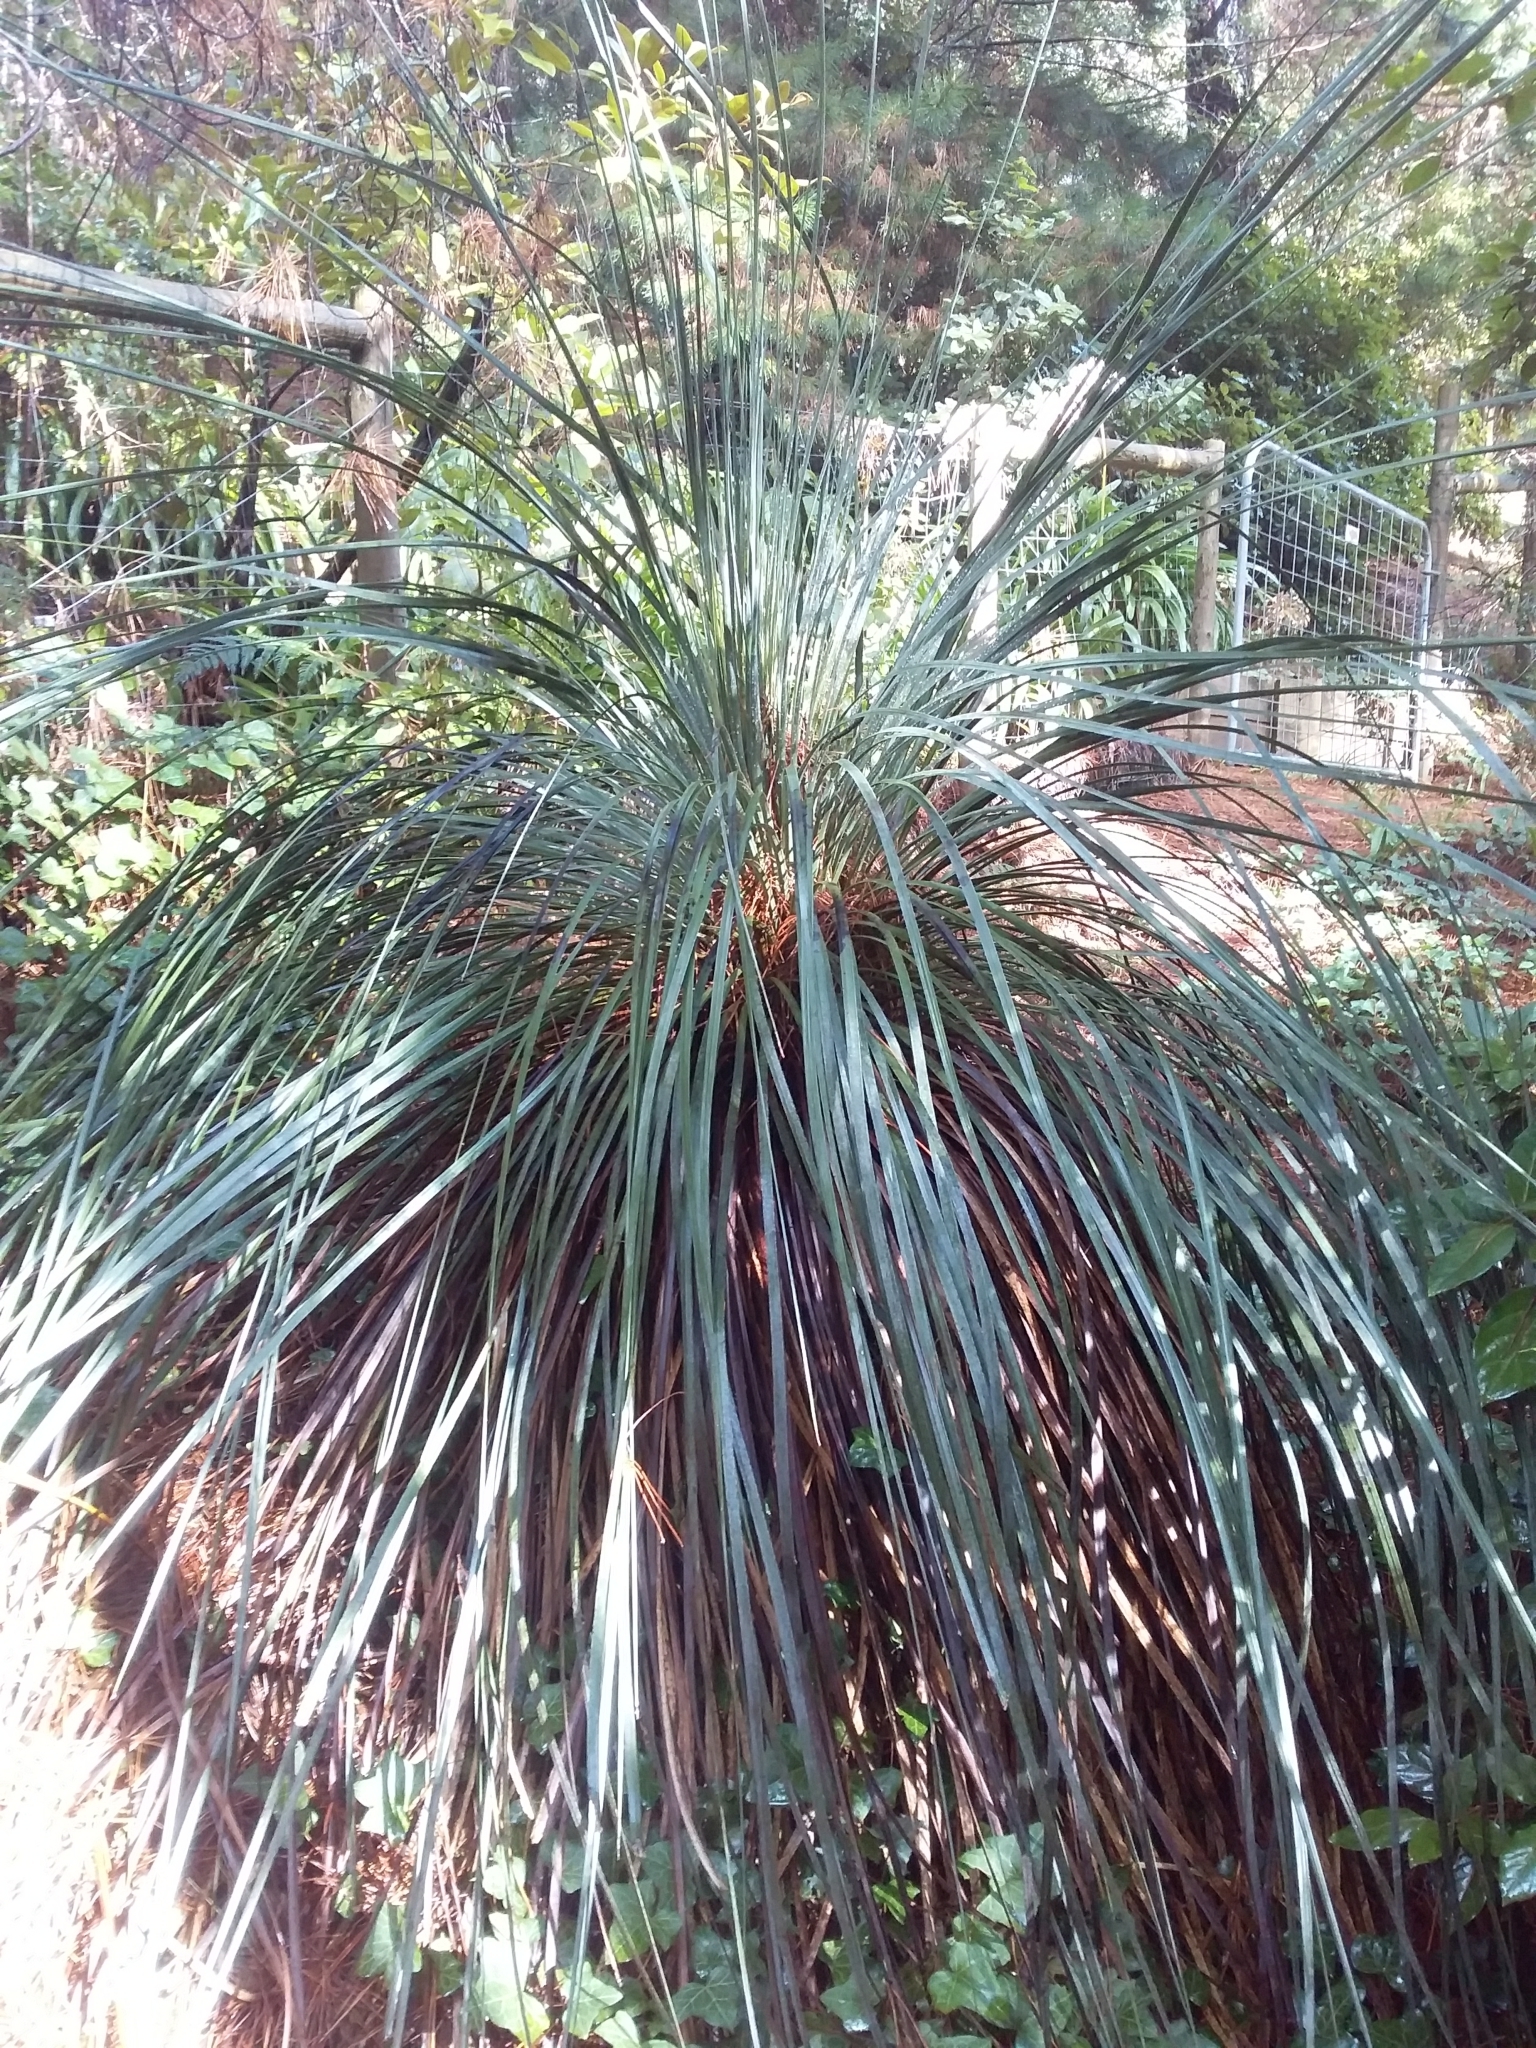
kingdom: Plantae
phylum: Tracheophyta
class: Liliopsida
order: Asparagales
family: Asphodelaceae
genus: Xanthorrhoea
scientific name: Xanthorrhoea semiplana
